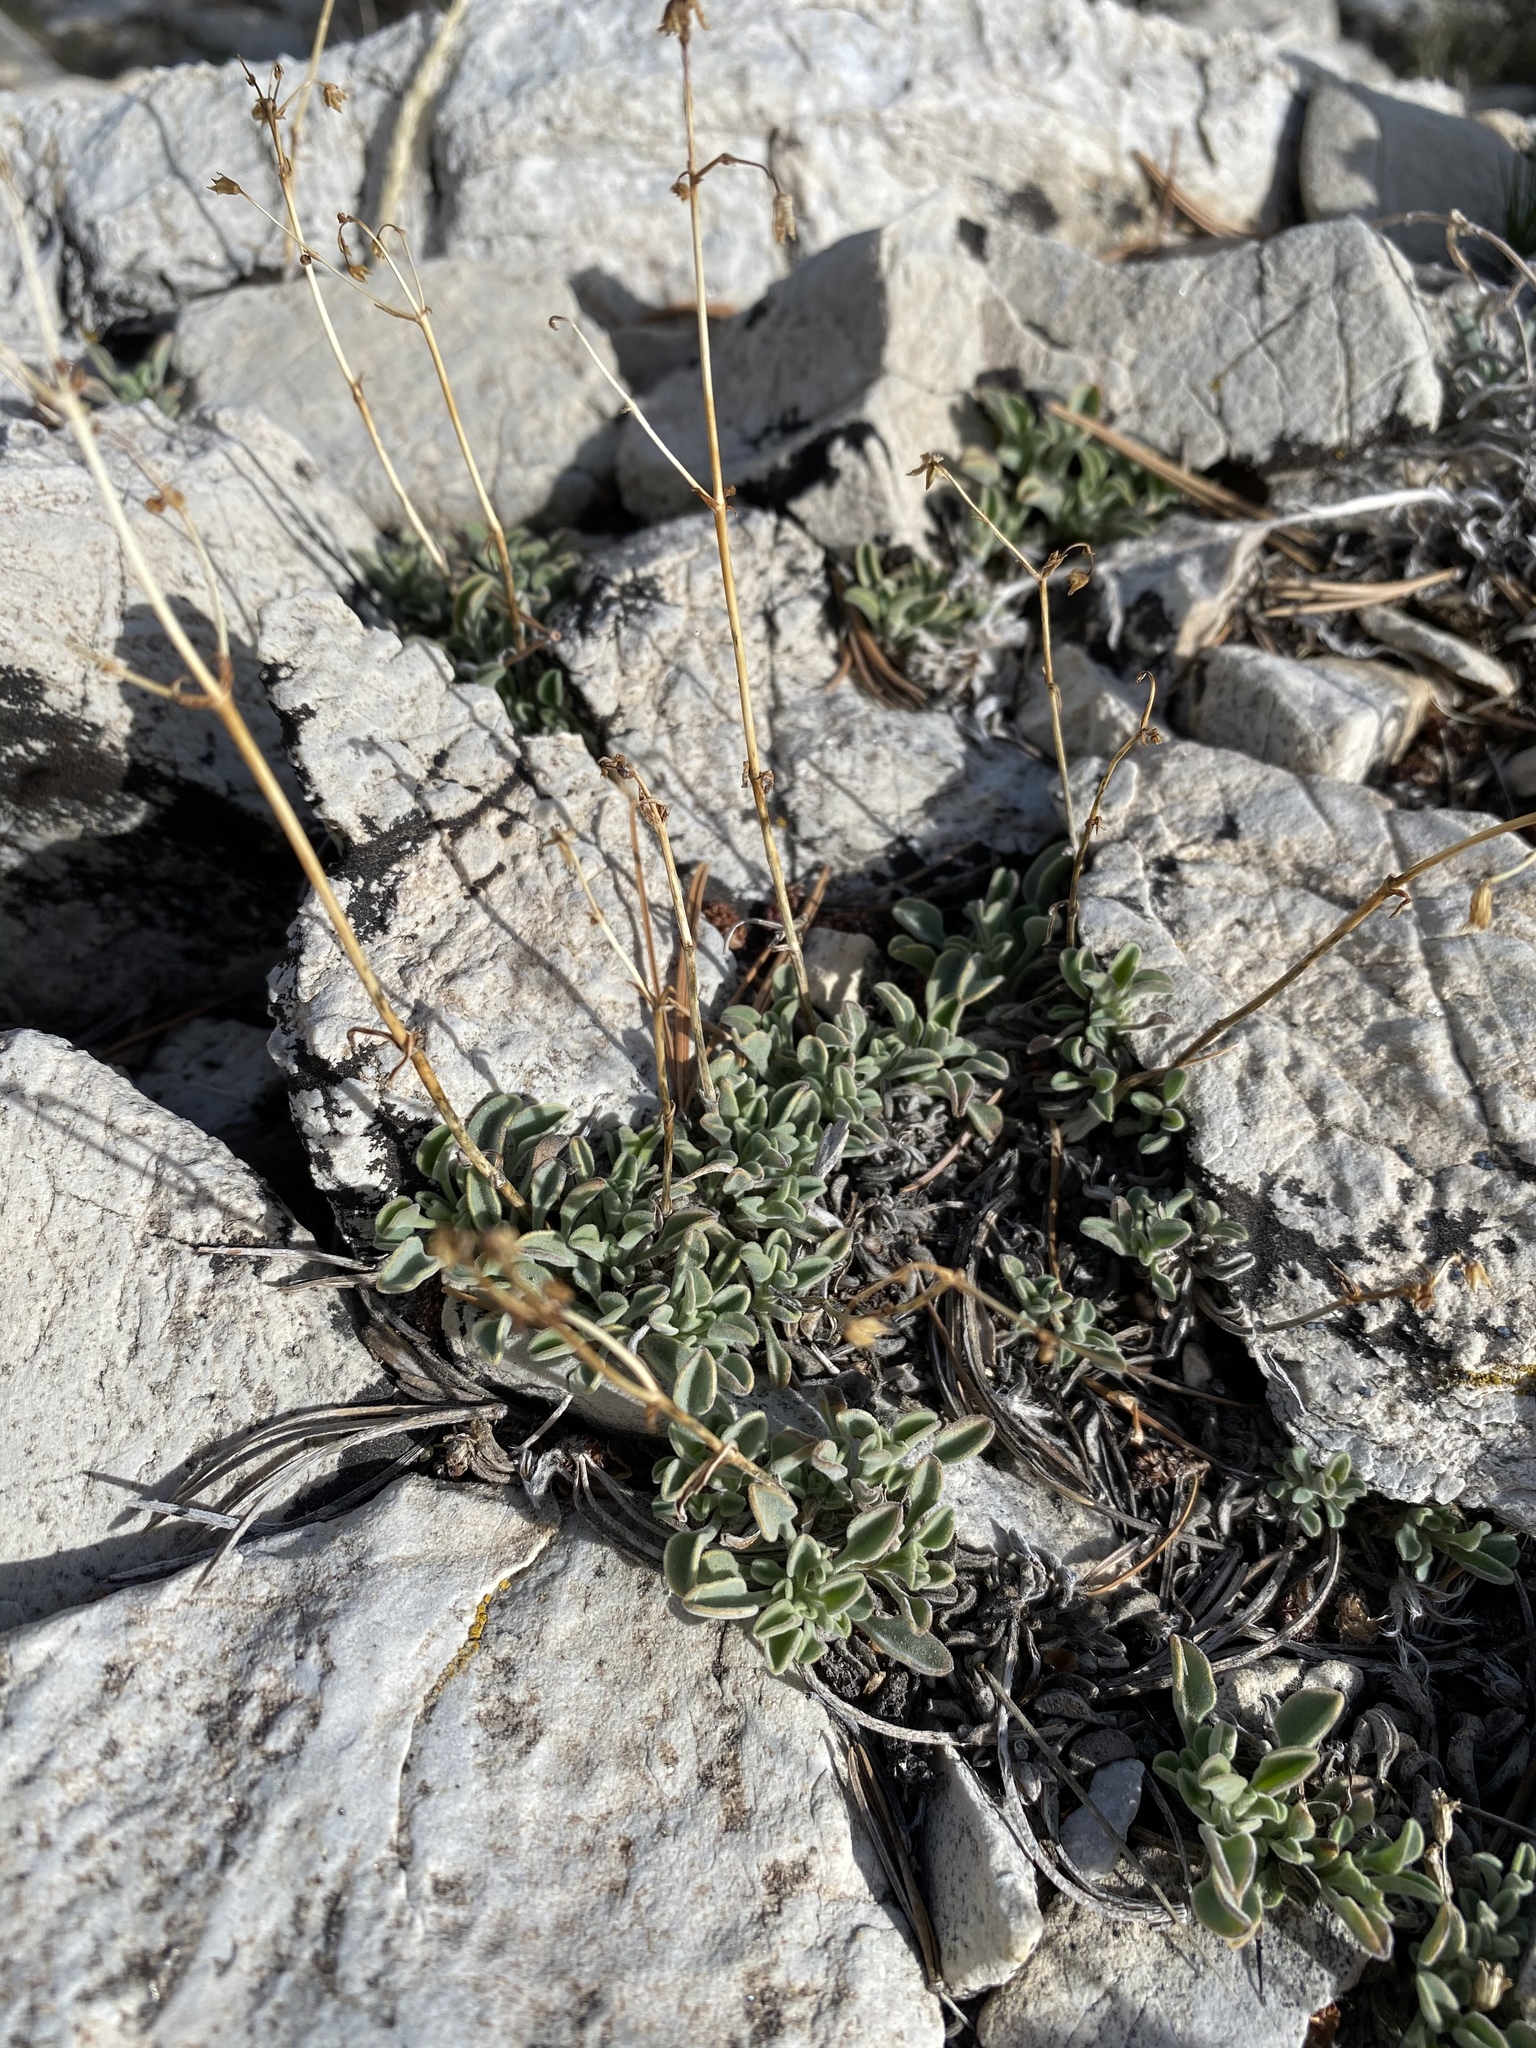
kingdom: Plantae
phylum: Tracheophyta
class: Magnoliopsida
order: Lamiales
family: Plantaginaceae
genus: Penstemon
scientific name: Penstemon scapoides
